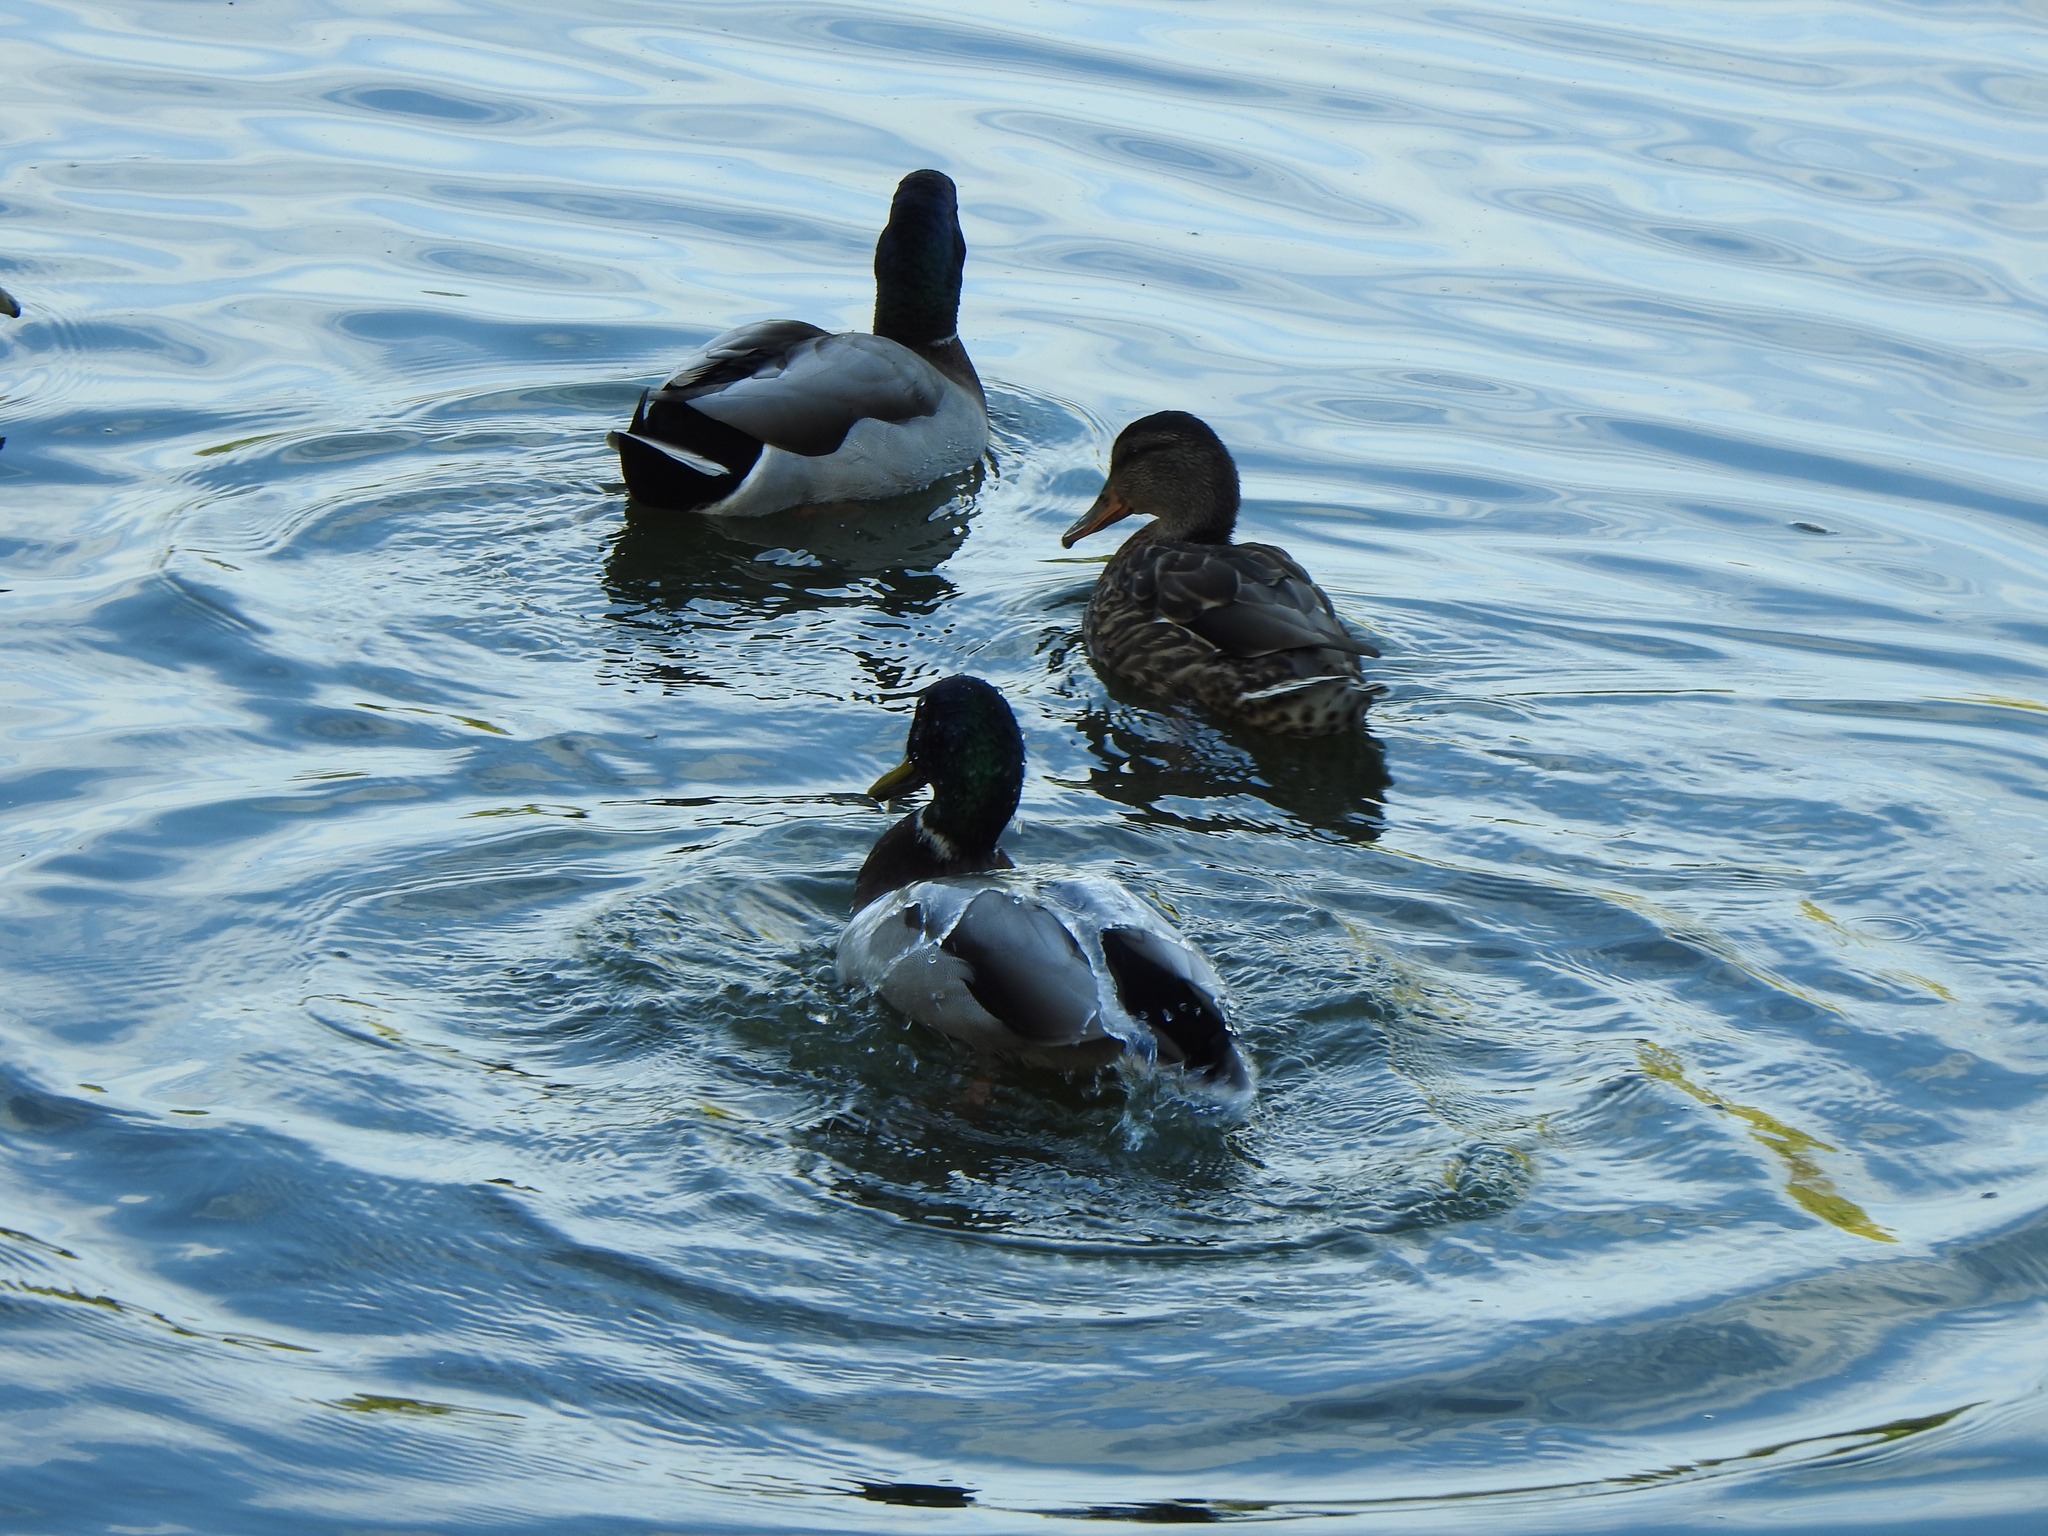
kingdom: Animalia
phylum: Chordata
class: Aves
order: Anseriformes
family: Anatidae
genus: Anas
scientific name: Anas platyrhynchos
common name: Mallard
